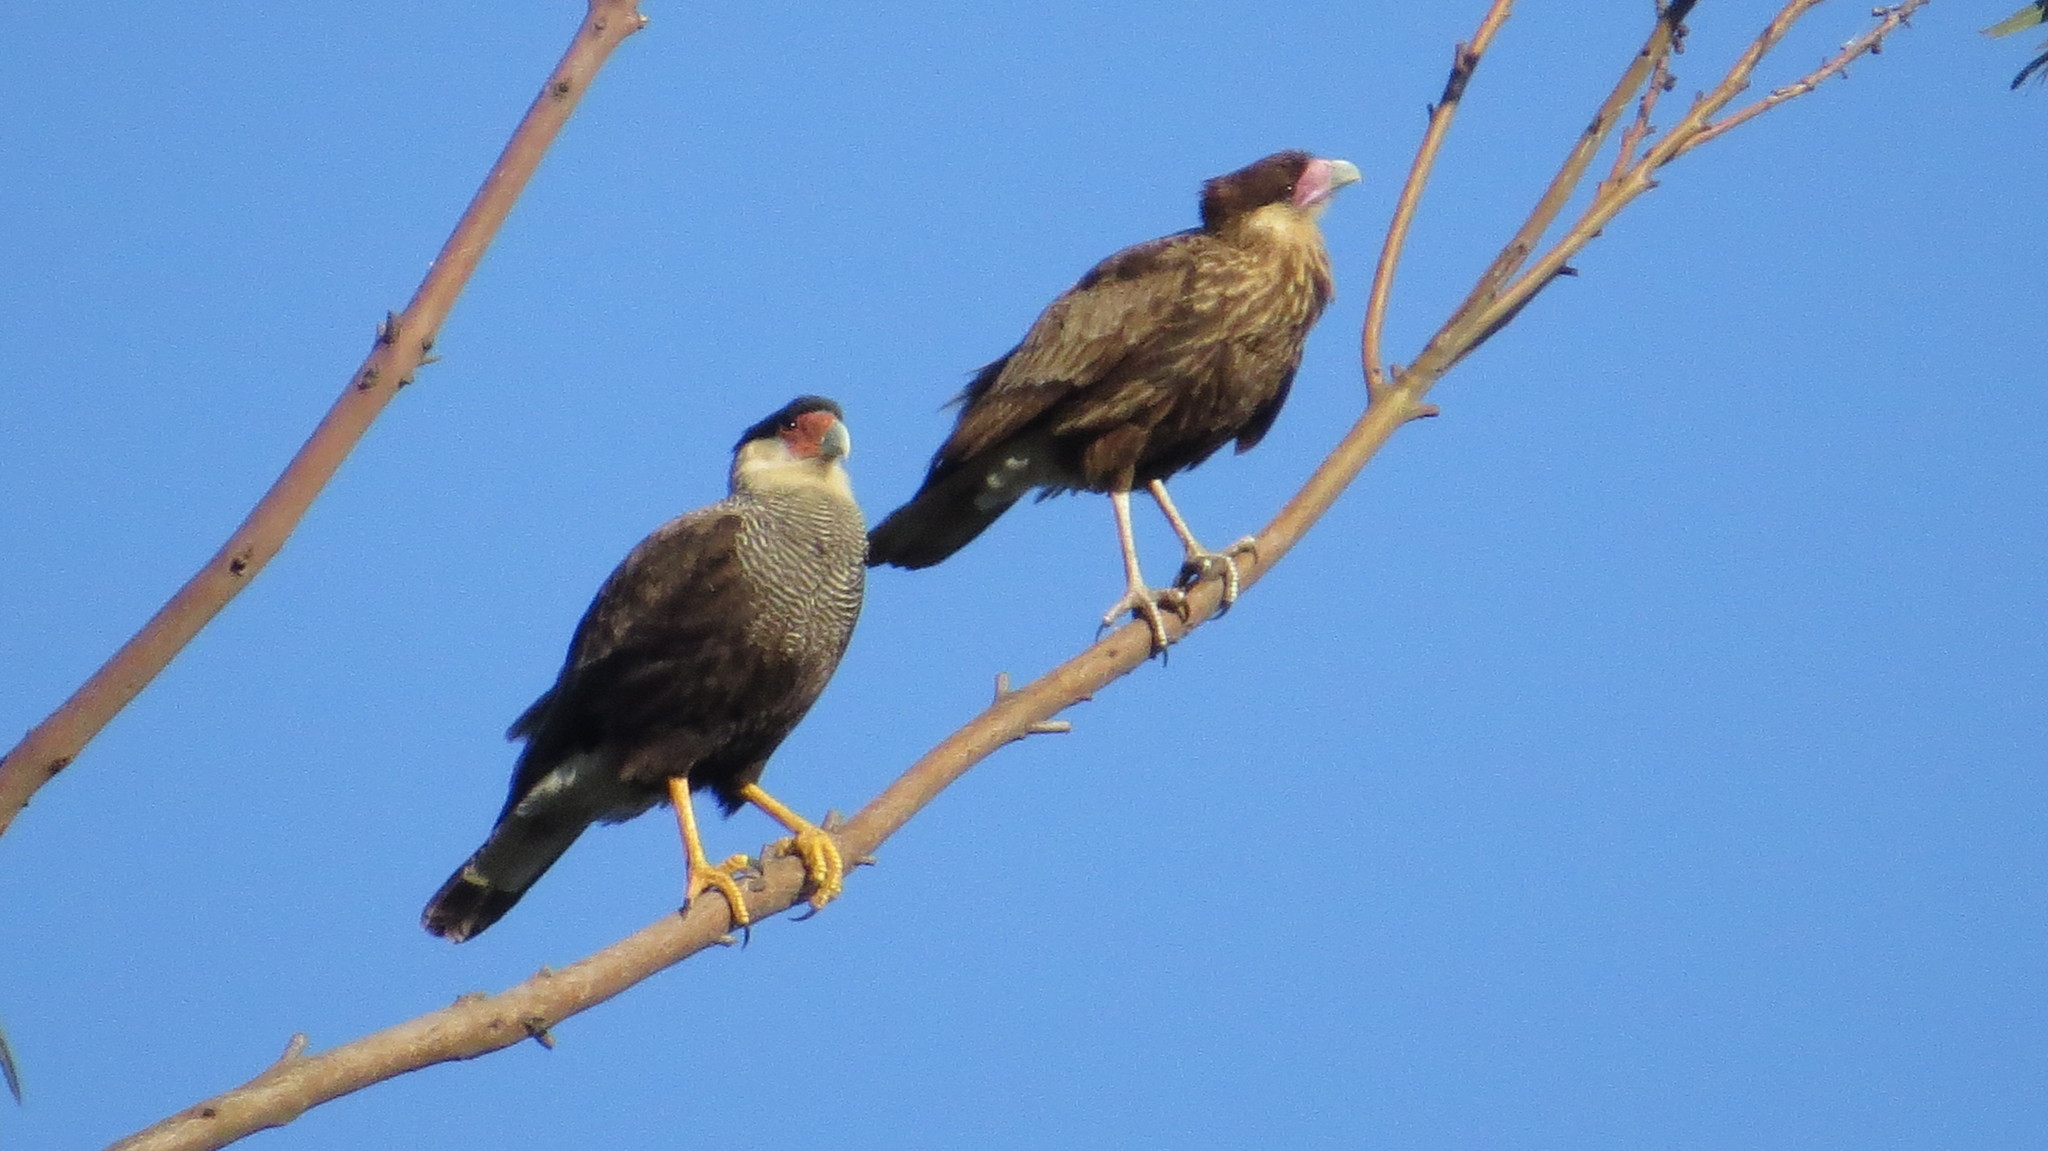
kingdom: Animalia
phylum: Chordata
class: Aves
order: Falconiformes
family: Falconidae
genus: Caracara
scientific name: Caracara plancus
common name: Southern caracara
